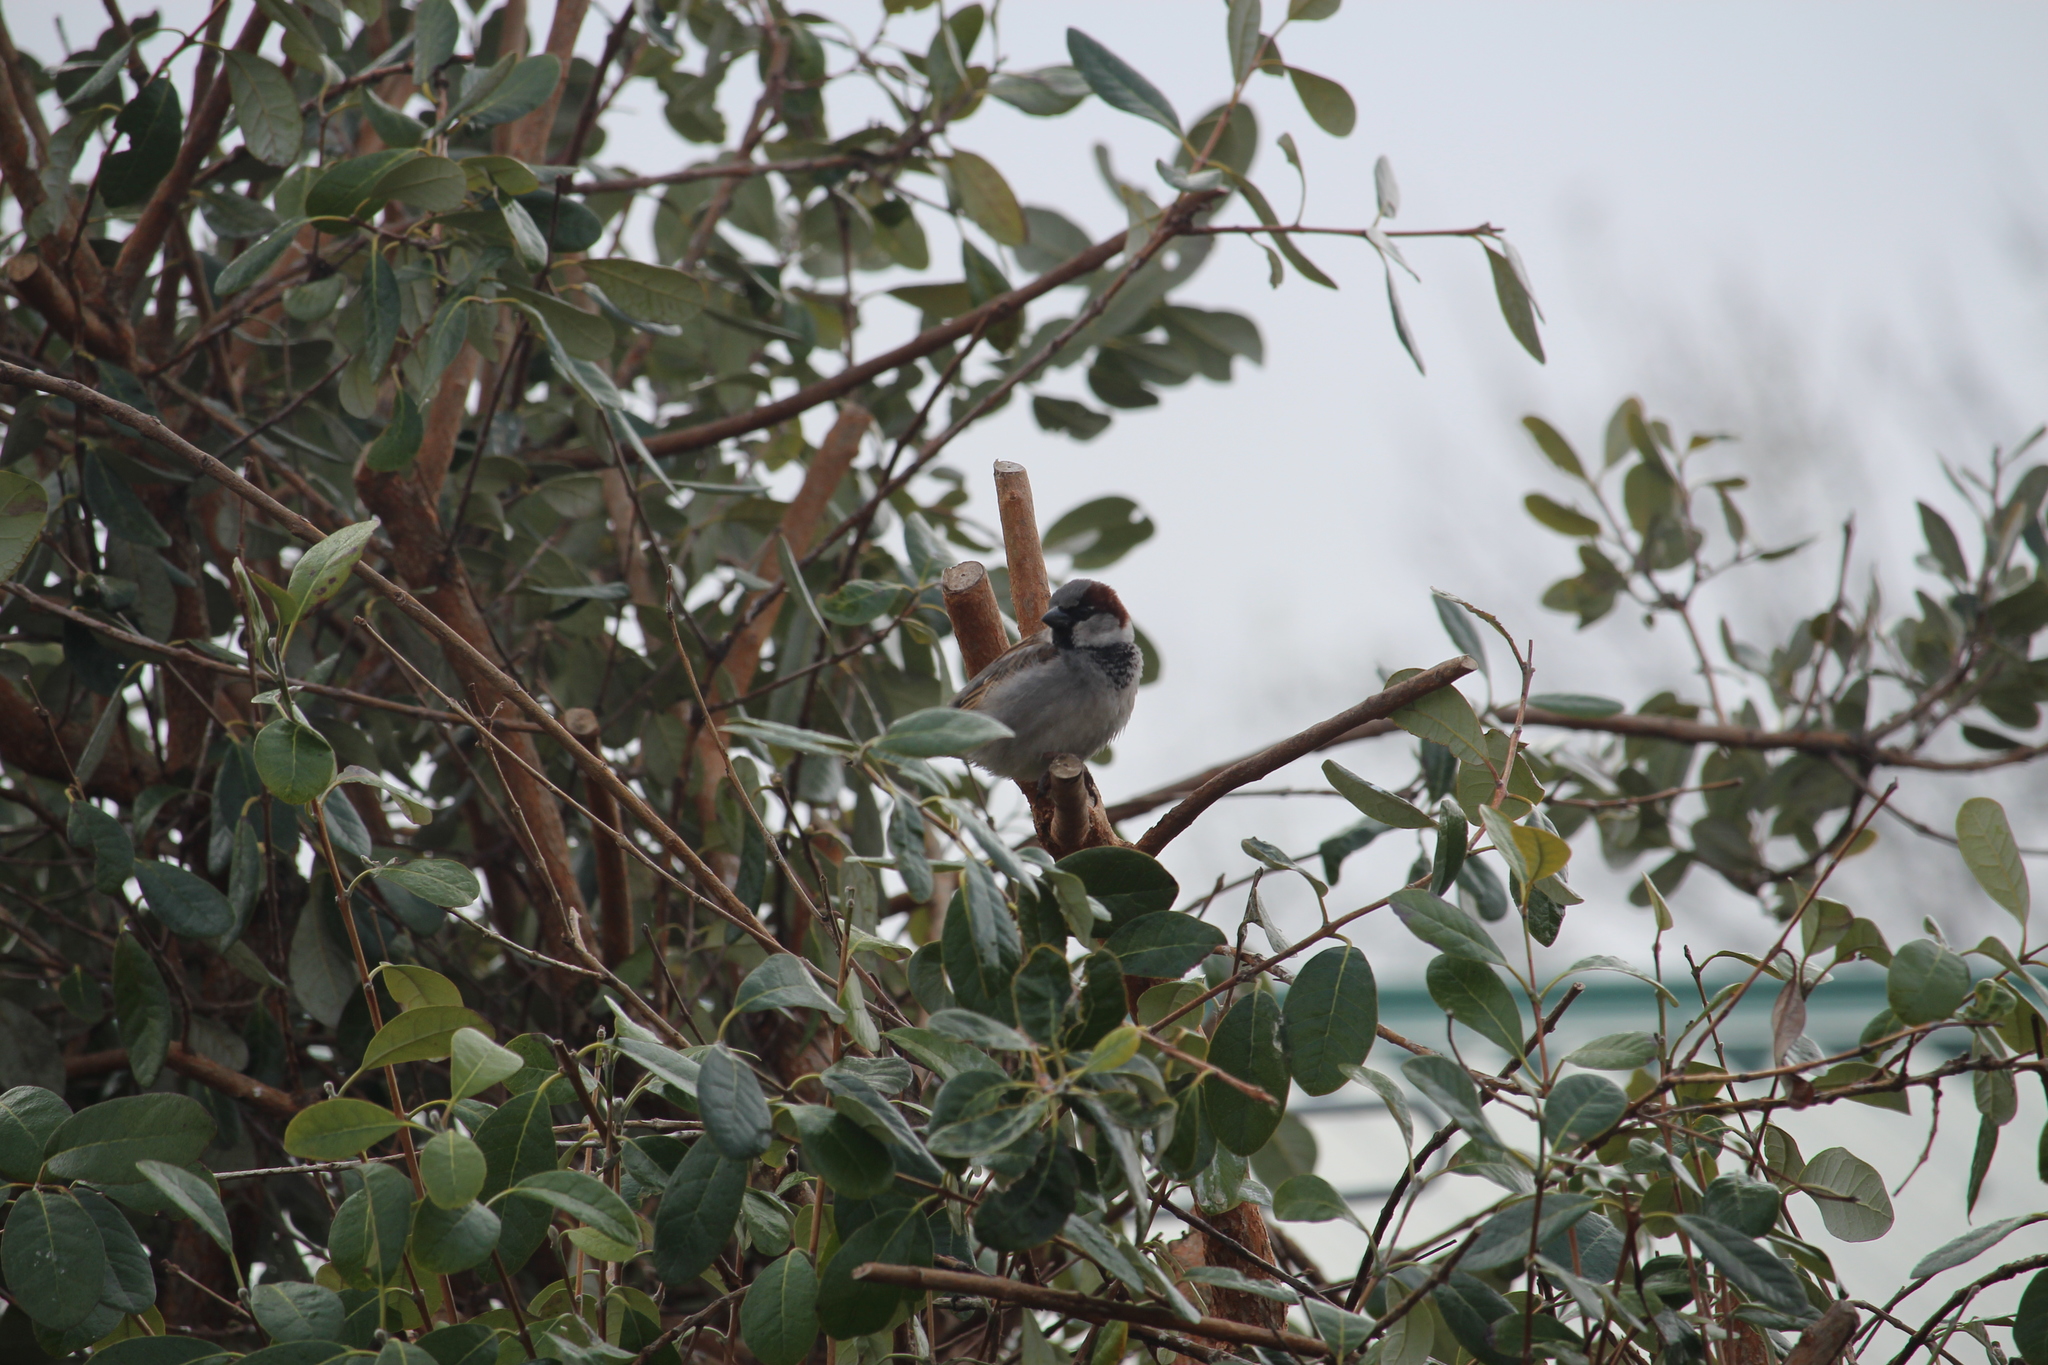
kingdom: Animalia
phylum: Chordata
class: Aves
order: Passeriformes
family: Passeridae
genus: Passer
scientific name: Passer domesticus
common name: House sparrow
